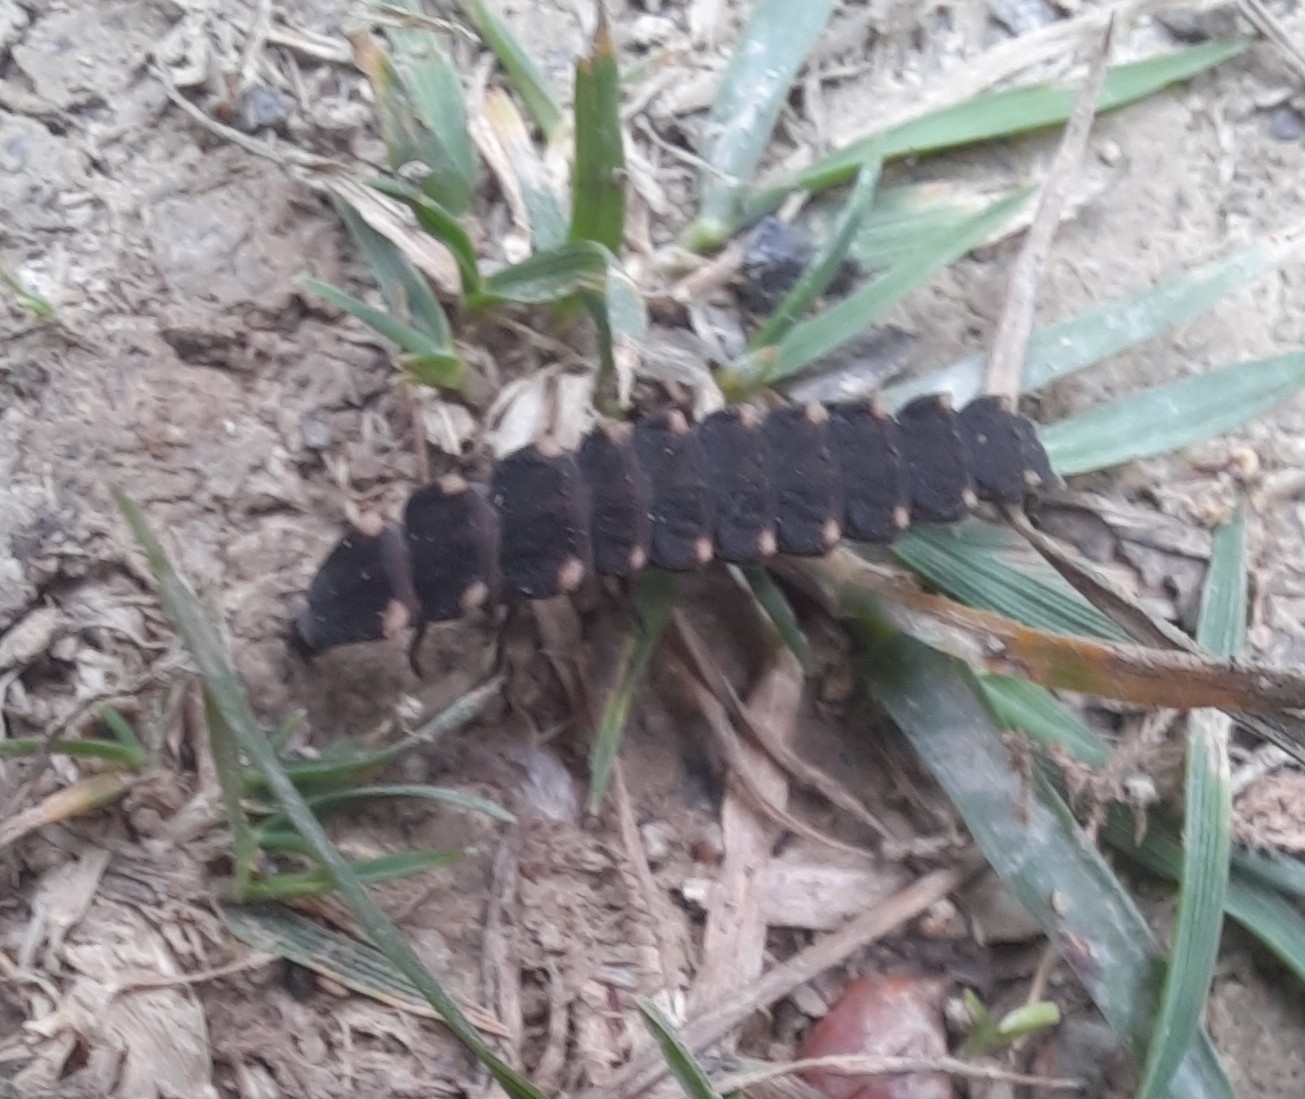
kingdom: Animalia
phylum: Arthropoda
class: Insecta
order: Coleoptera
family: Lampyridae
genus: Lampyris
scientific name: Lampyris noctiluca
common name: Glow-worm
